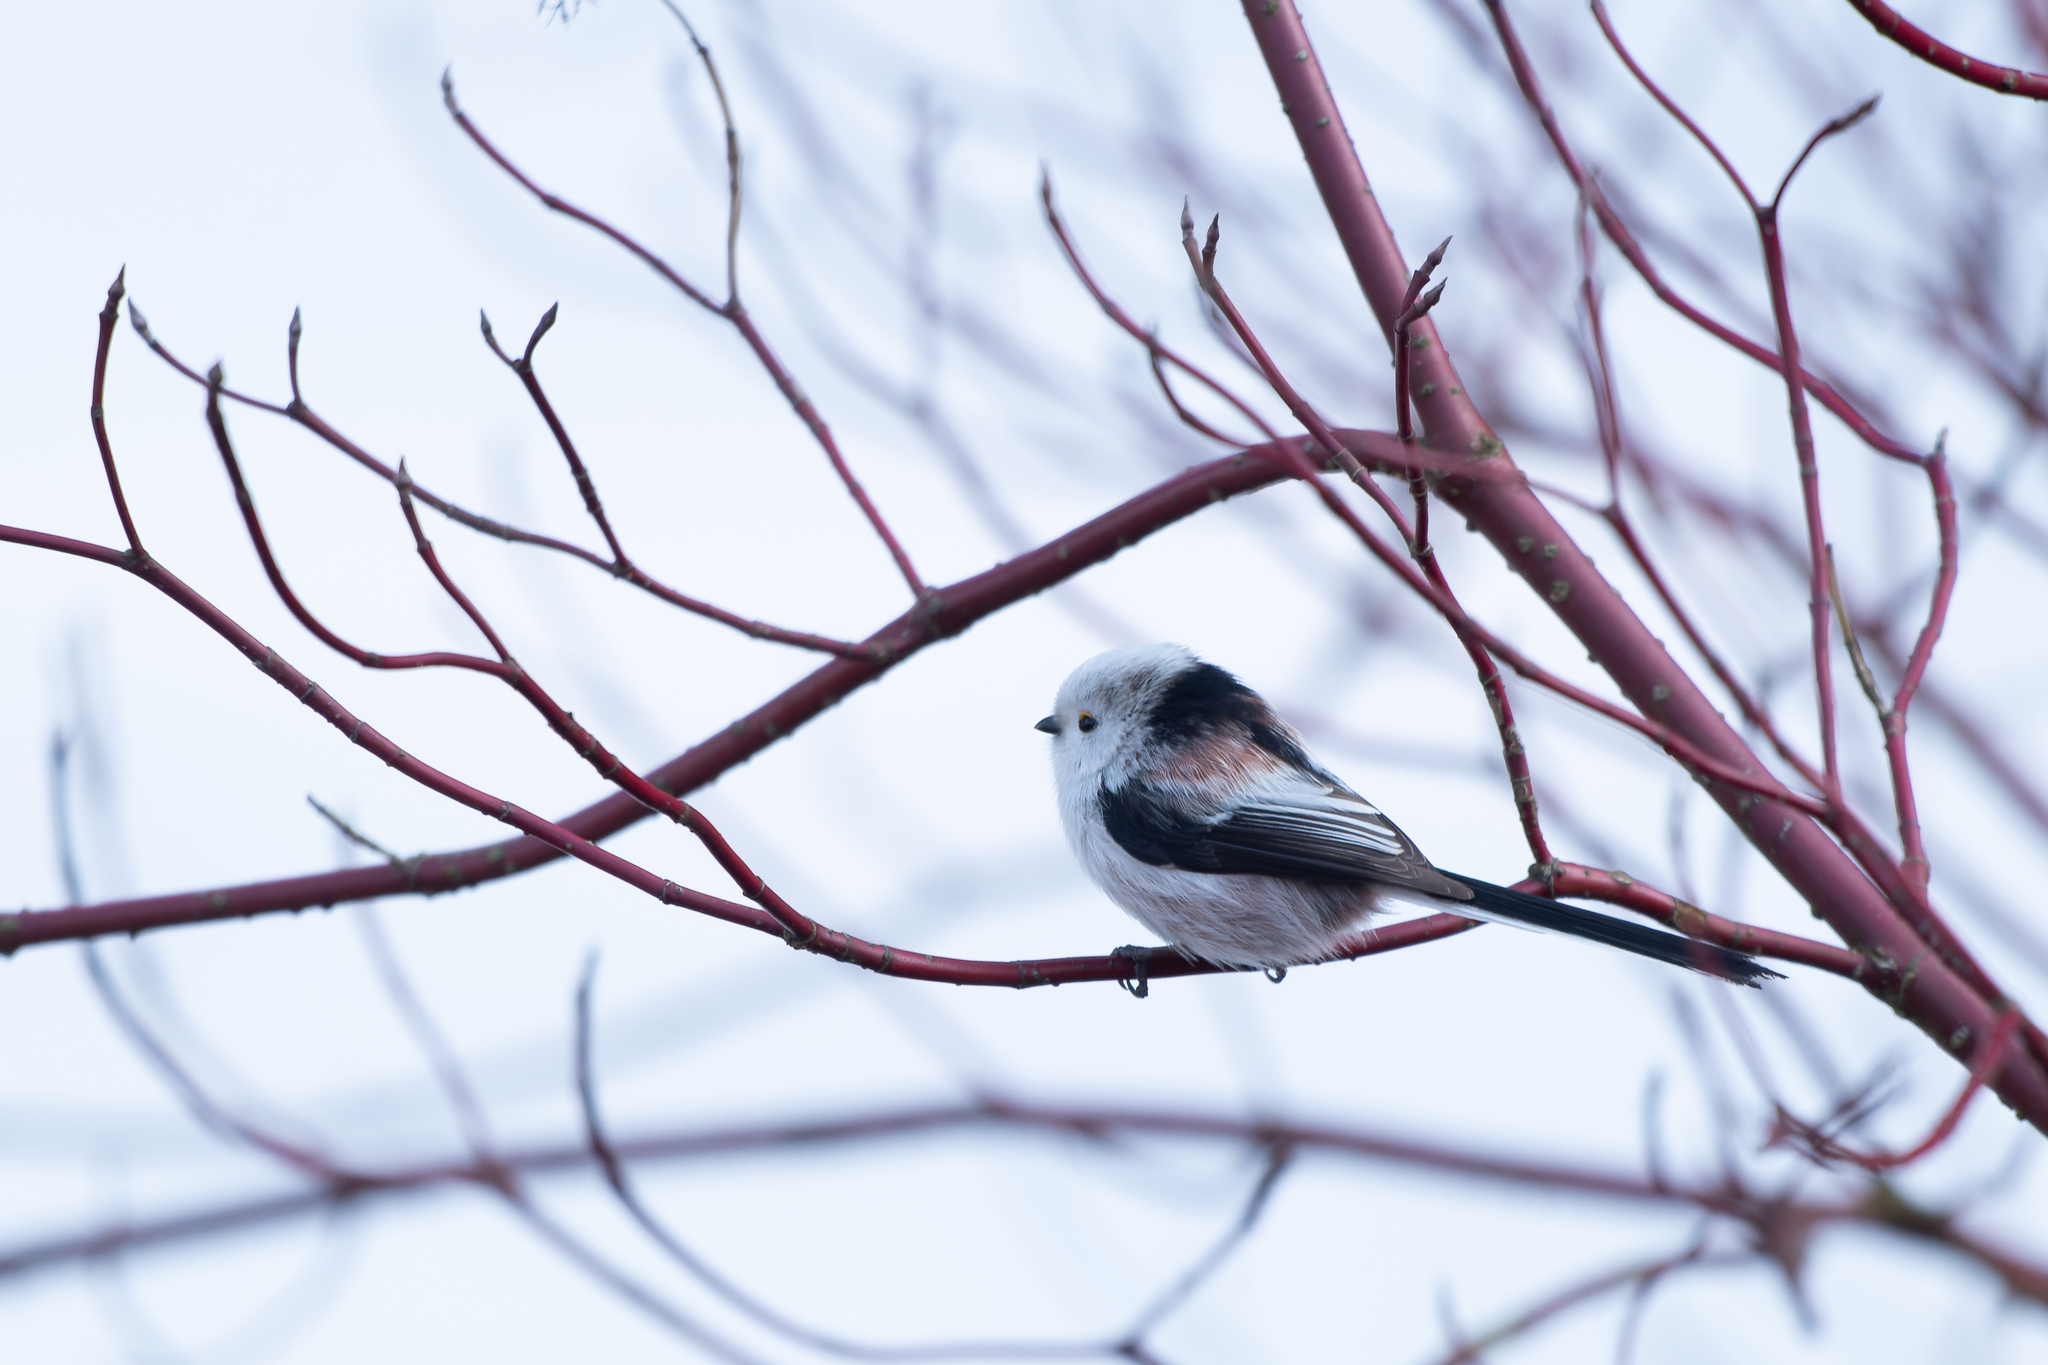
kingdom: Animalia
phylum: Chordata
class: Aves
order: Passeriformes
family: Aegithalidae
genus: Aegithalos
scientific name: Aegithalos caudatus
